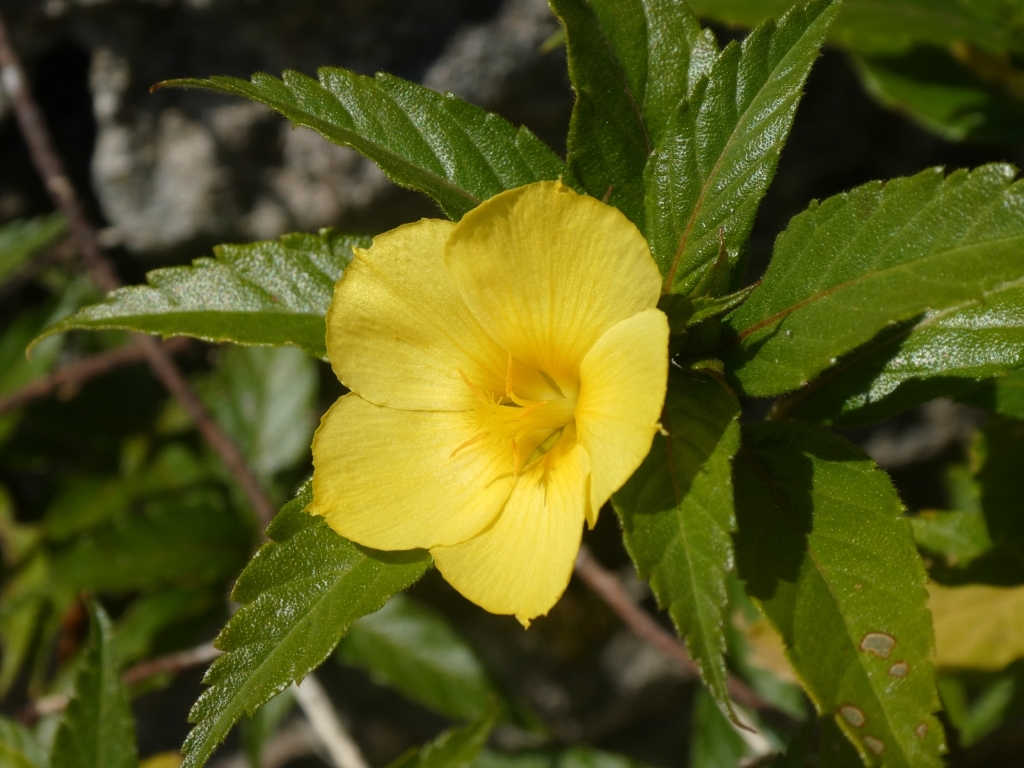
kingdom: Plantae
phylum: Tracheophyta
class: Magnoliopsida
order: Malpighiales
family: Turneraceae
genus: Turnera
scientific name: Turnera ulmifolia
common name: Ramgoat dashalong
